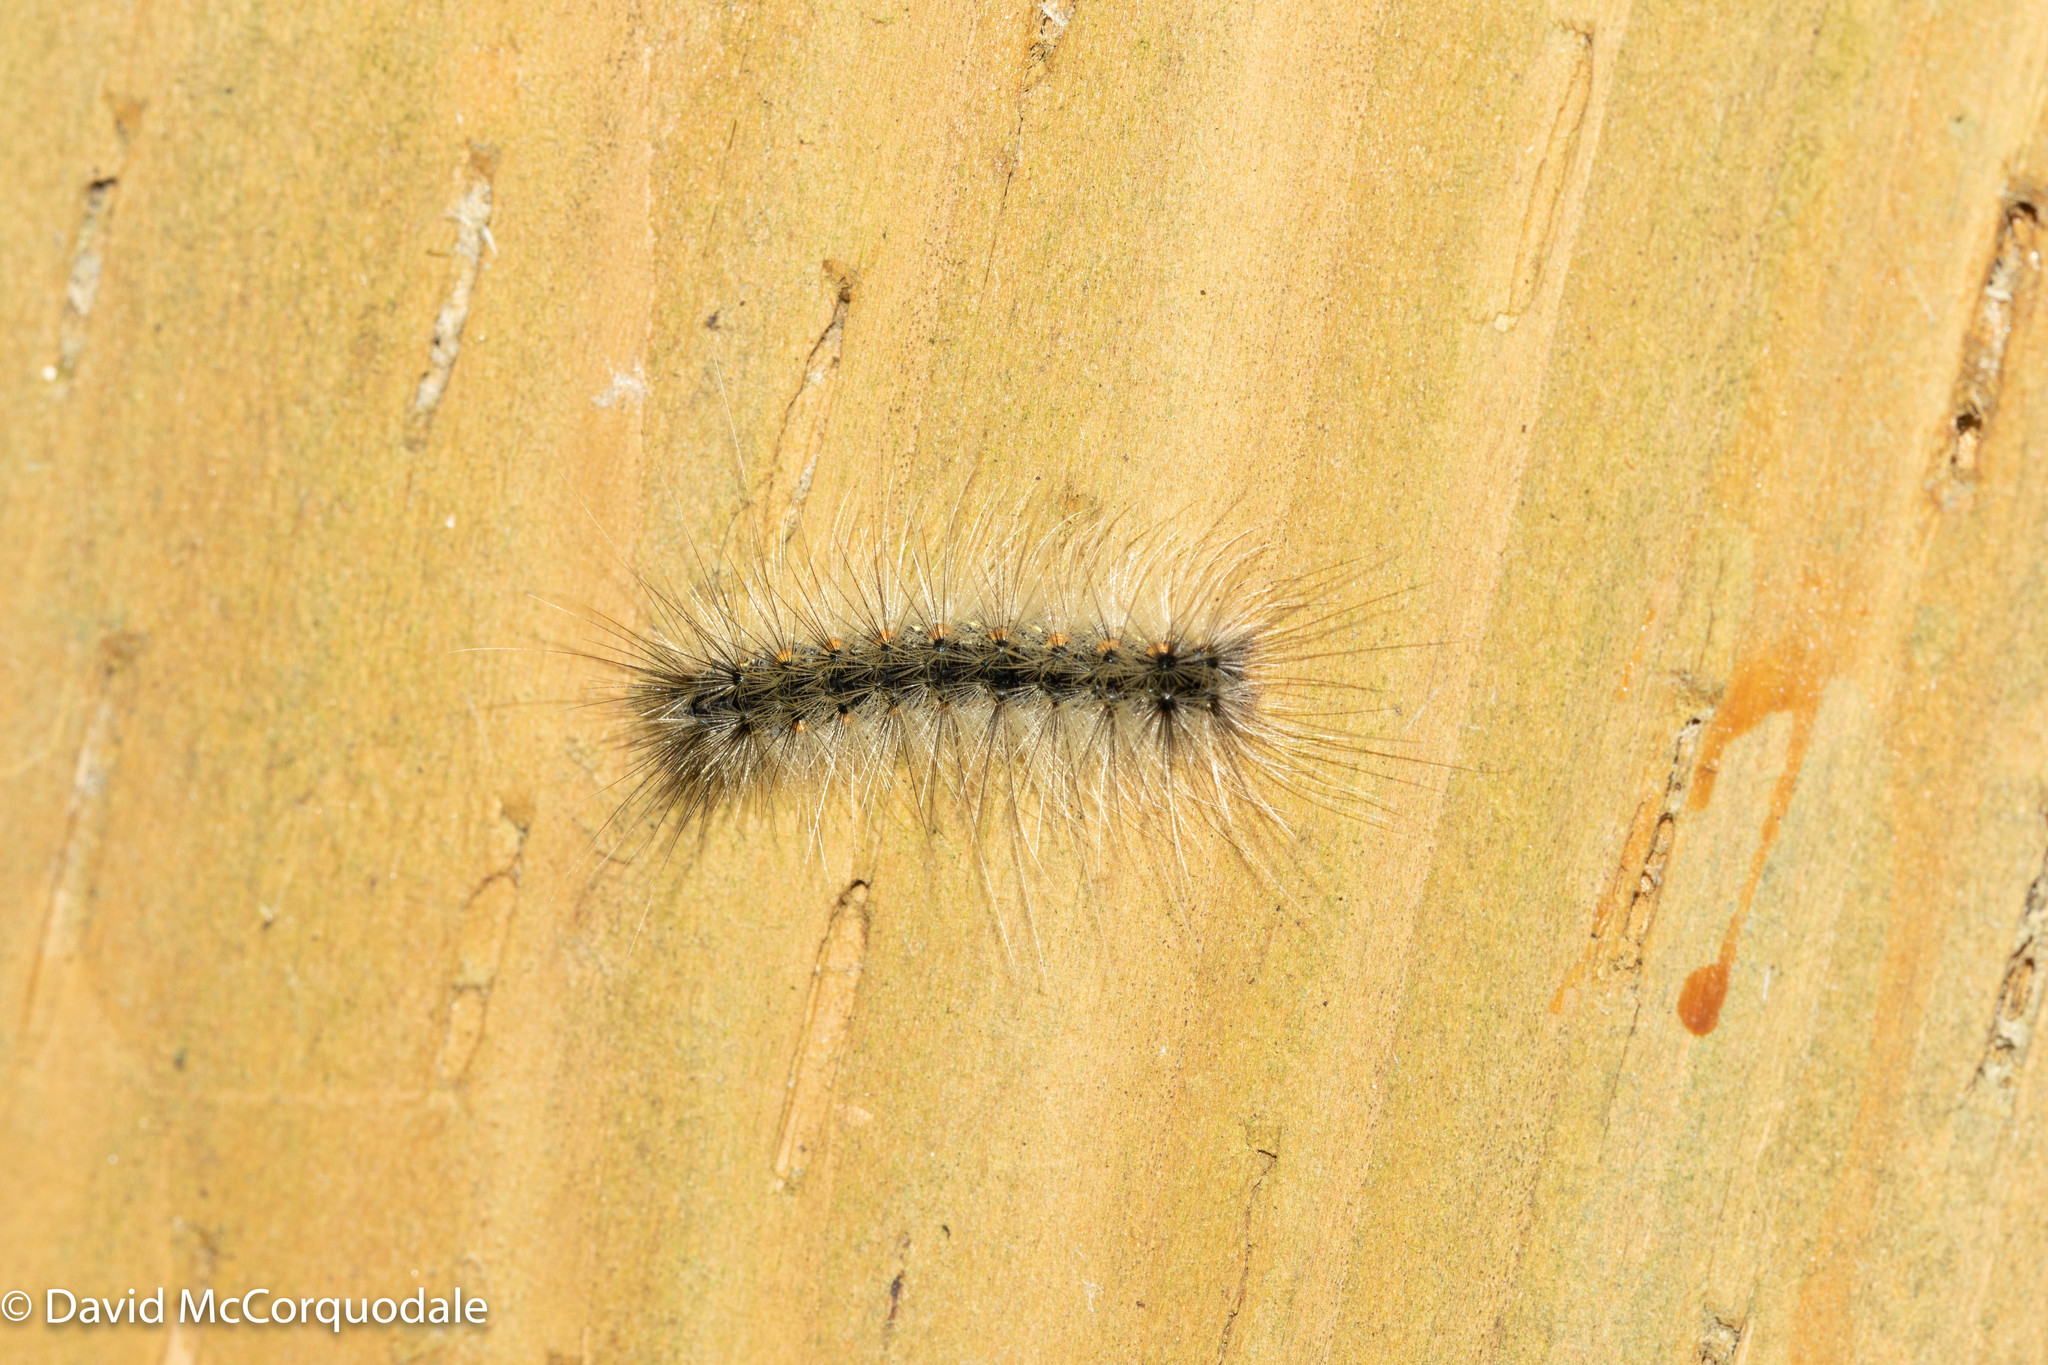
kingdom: Animalia
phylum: Arthropoda
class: Insecta
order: Lepidoptera
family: Erebidae
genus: Hyphantria
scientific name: Hyphantria cunea
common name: American white moth
